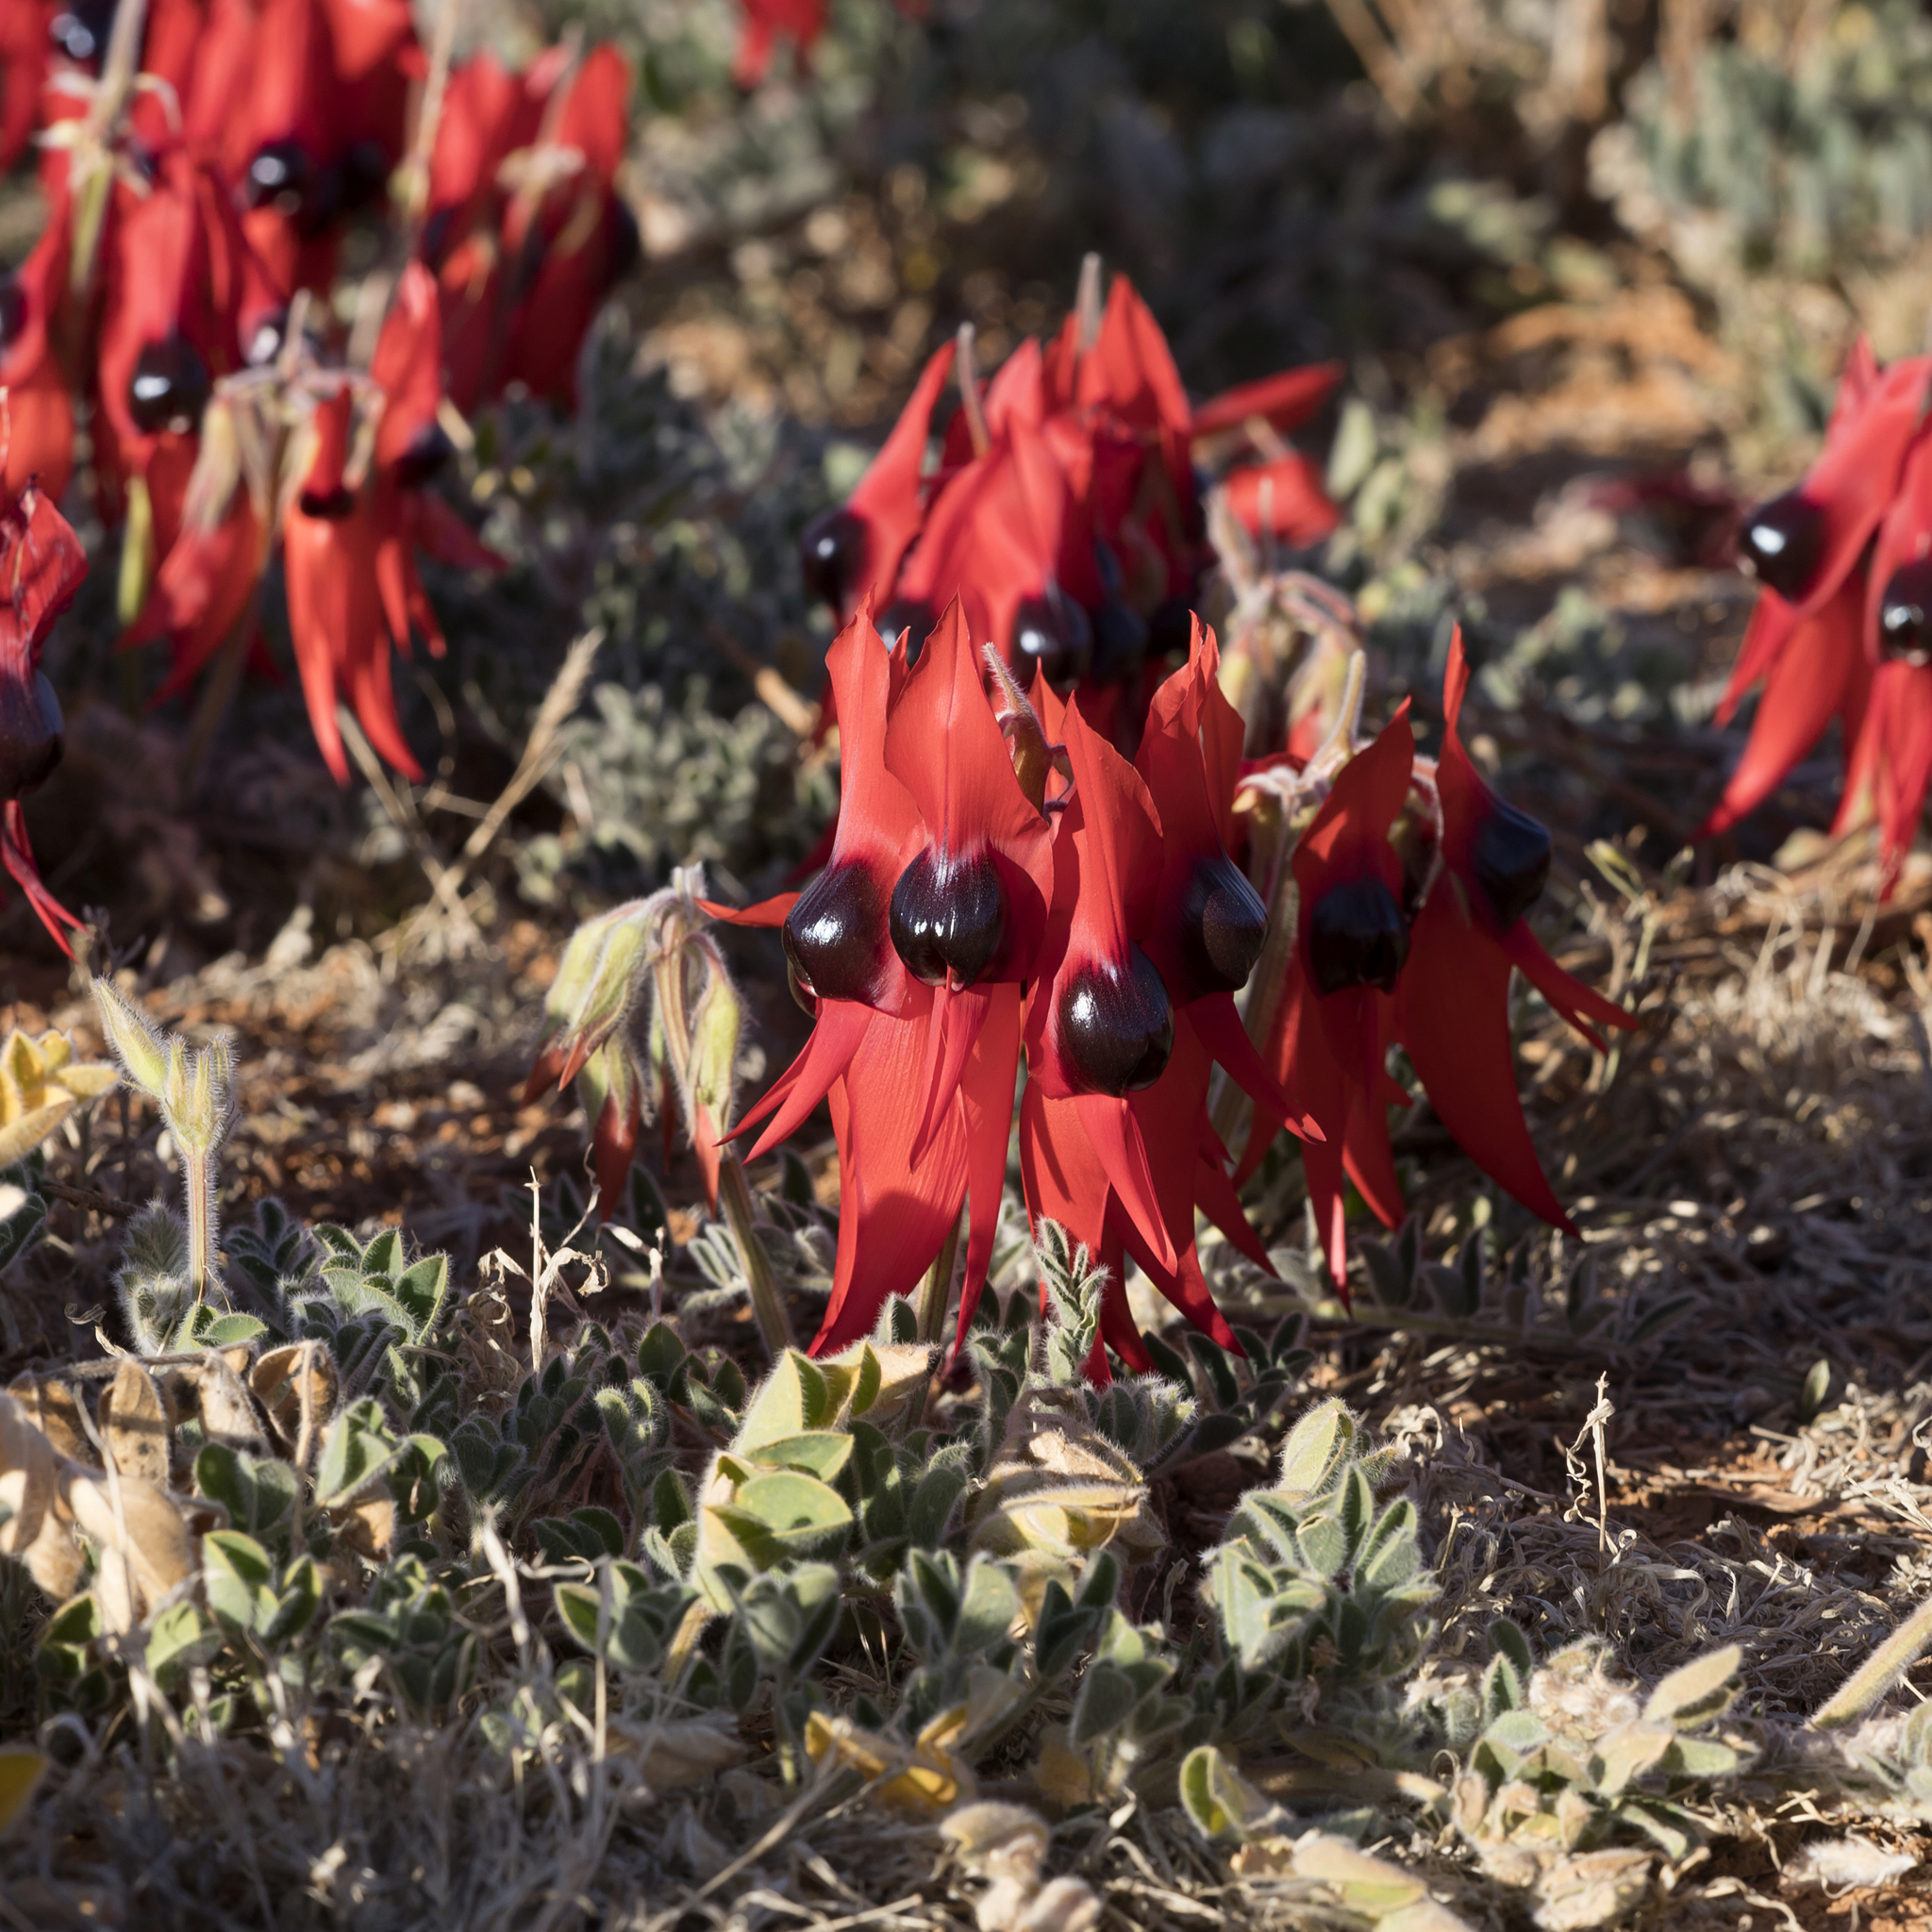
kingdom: Plantae
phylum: Tracheophyta
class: Magnoliopsida
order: Fabales
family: Fabaceae
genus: Swainsona
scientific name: Swainsona formosa
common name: Sturt's desert-pea
